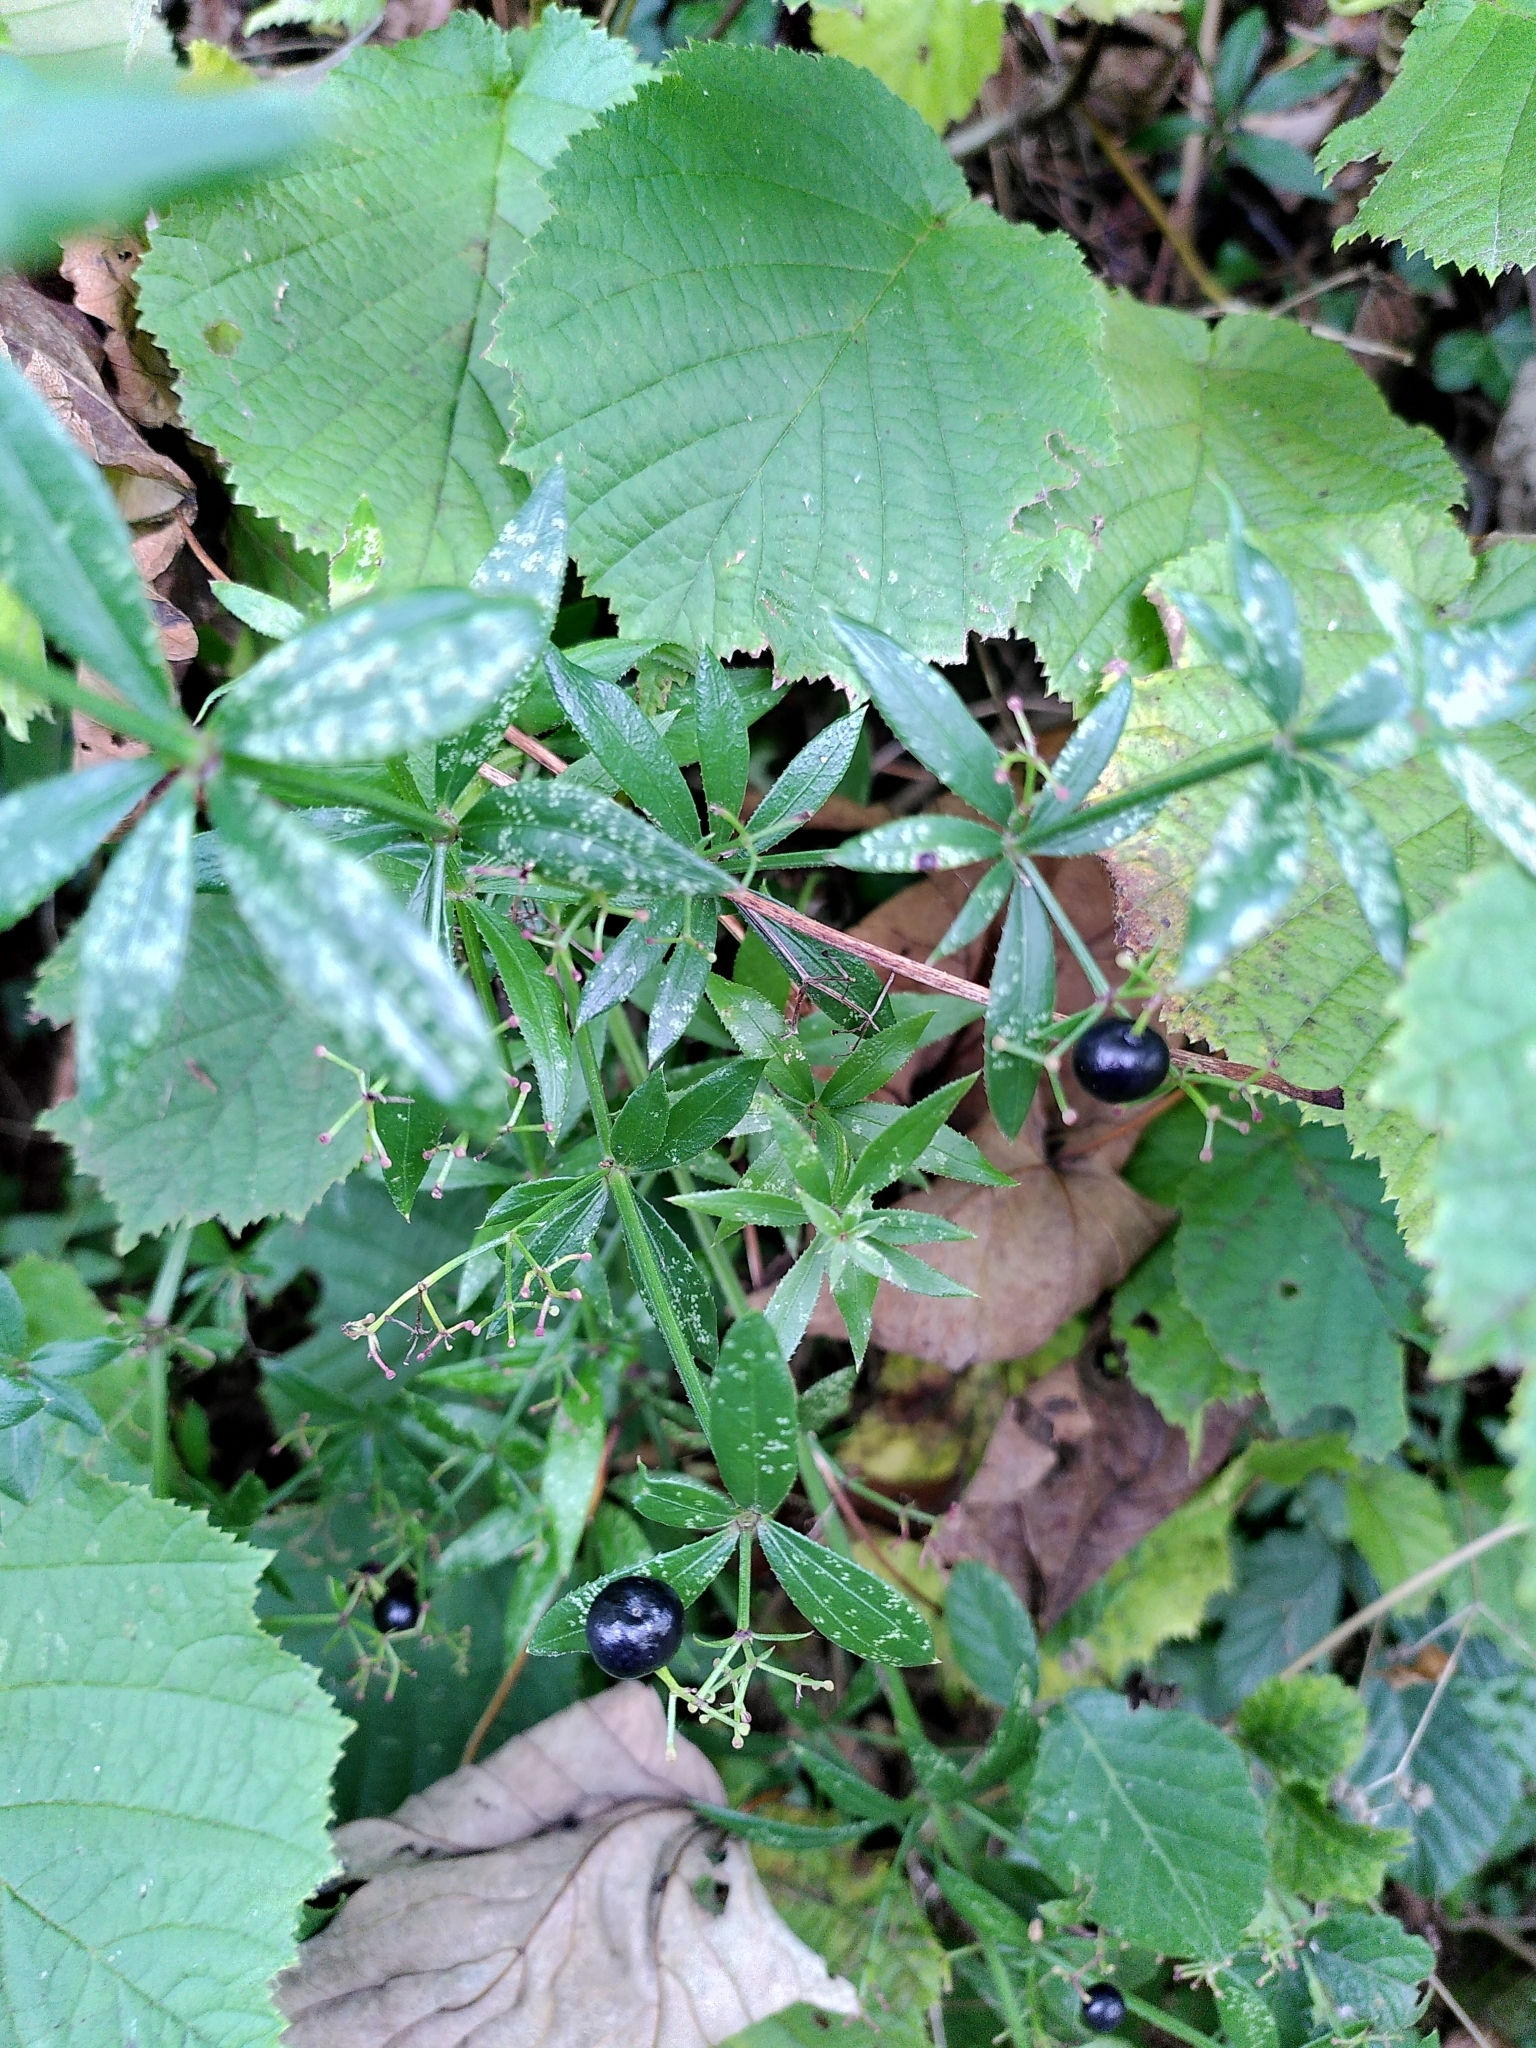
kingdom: Plantae
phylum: Tracheophyta
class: Magnoliopsida
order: Gentianales
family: Rubiaceae
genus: Rubia
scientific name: Rubia peregrina
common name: Wild madder
